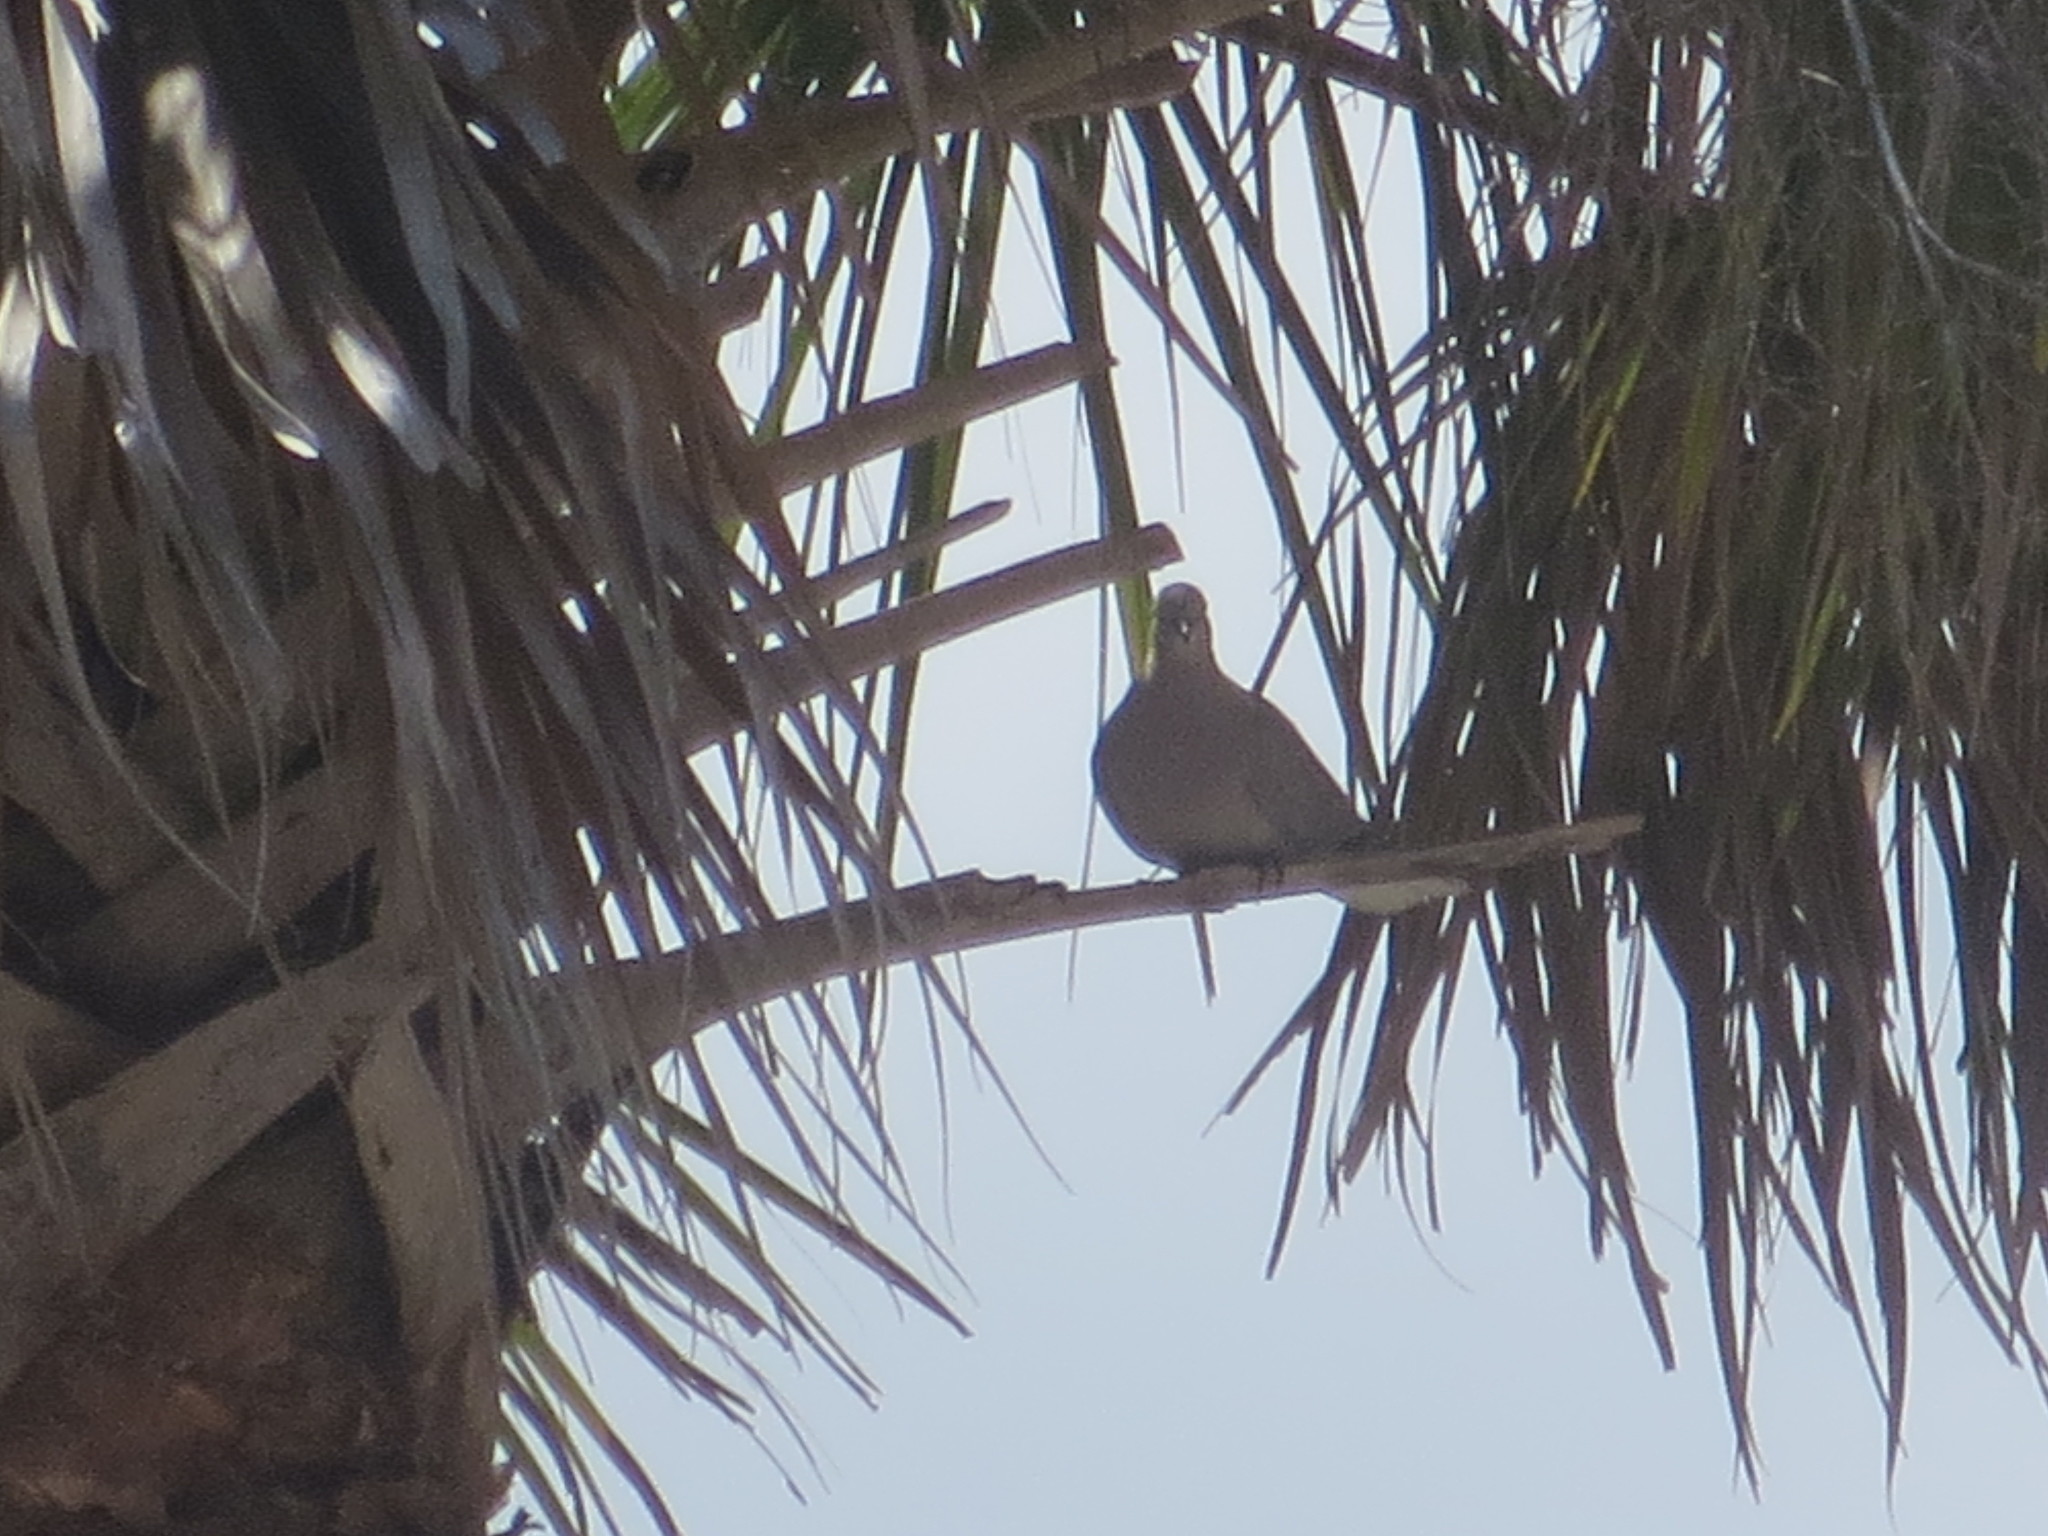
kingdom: Animalia
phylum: Chordata
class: Aves
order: Columbiformes
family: Columbidae
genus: Streptopelia
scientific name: Streptopelia decaocto
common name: Eurasian collared dove
